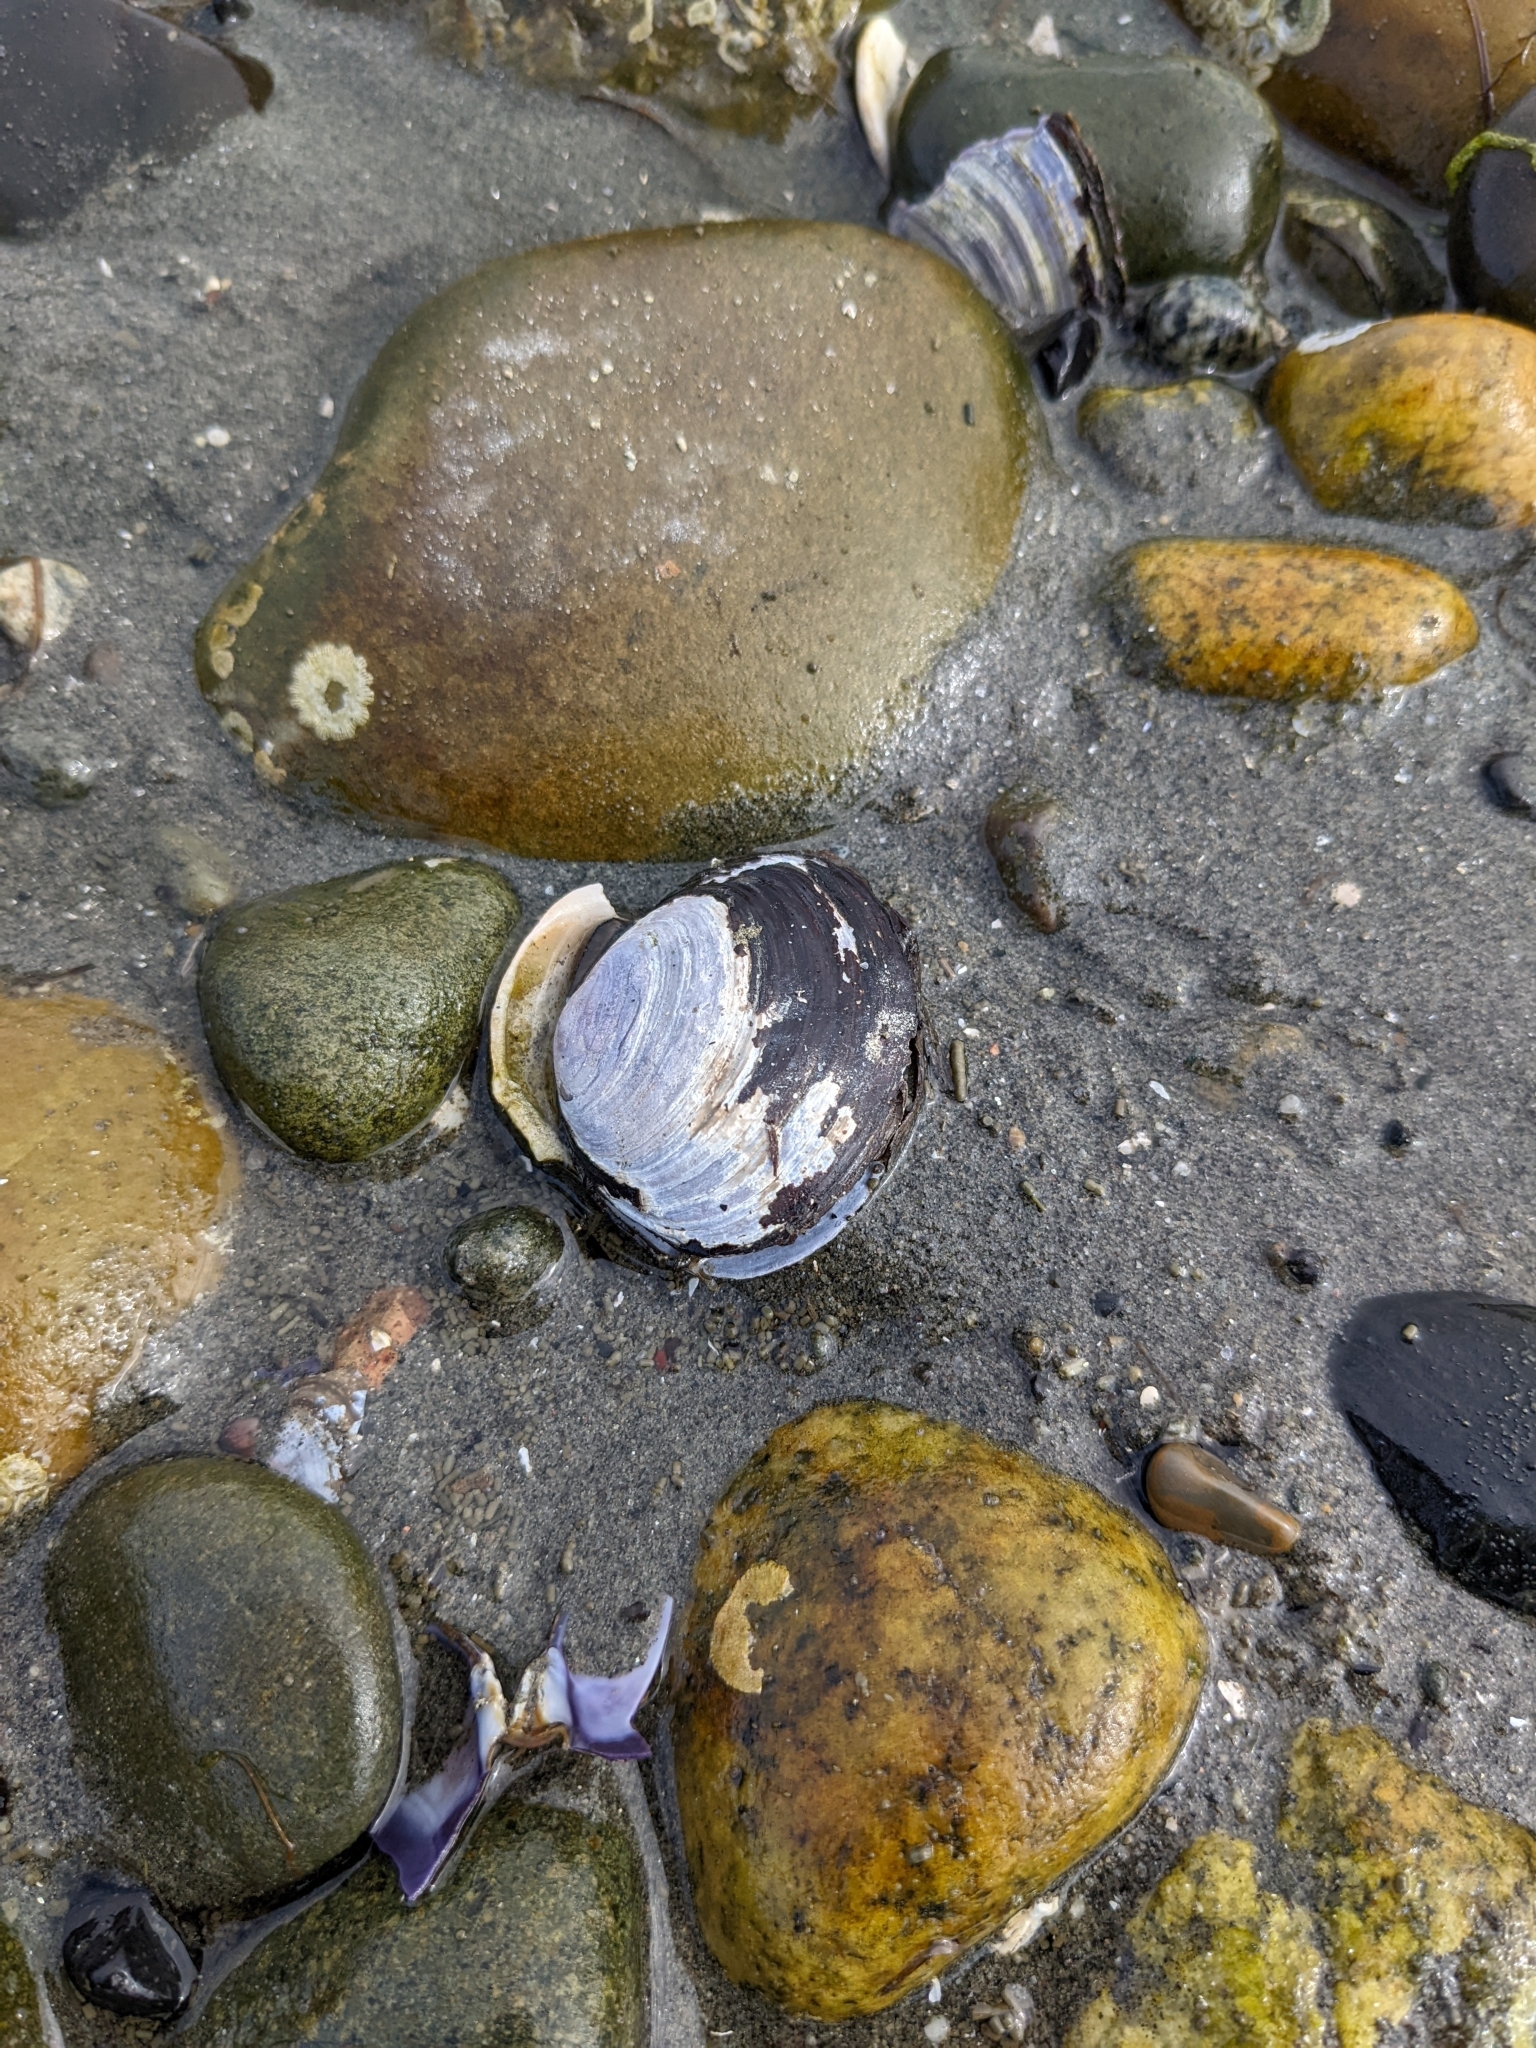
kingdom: Animalia
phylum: Mollusca
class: Bivalvia
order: Cardiida
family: Psammobiidae
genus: Nuttallia
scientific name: Nuttallia obscurata
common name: Purple mahogany-clam
